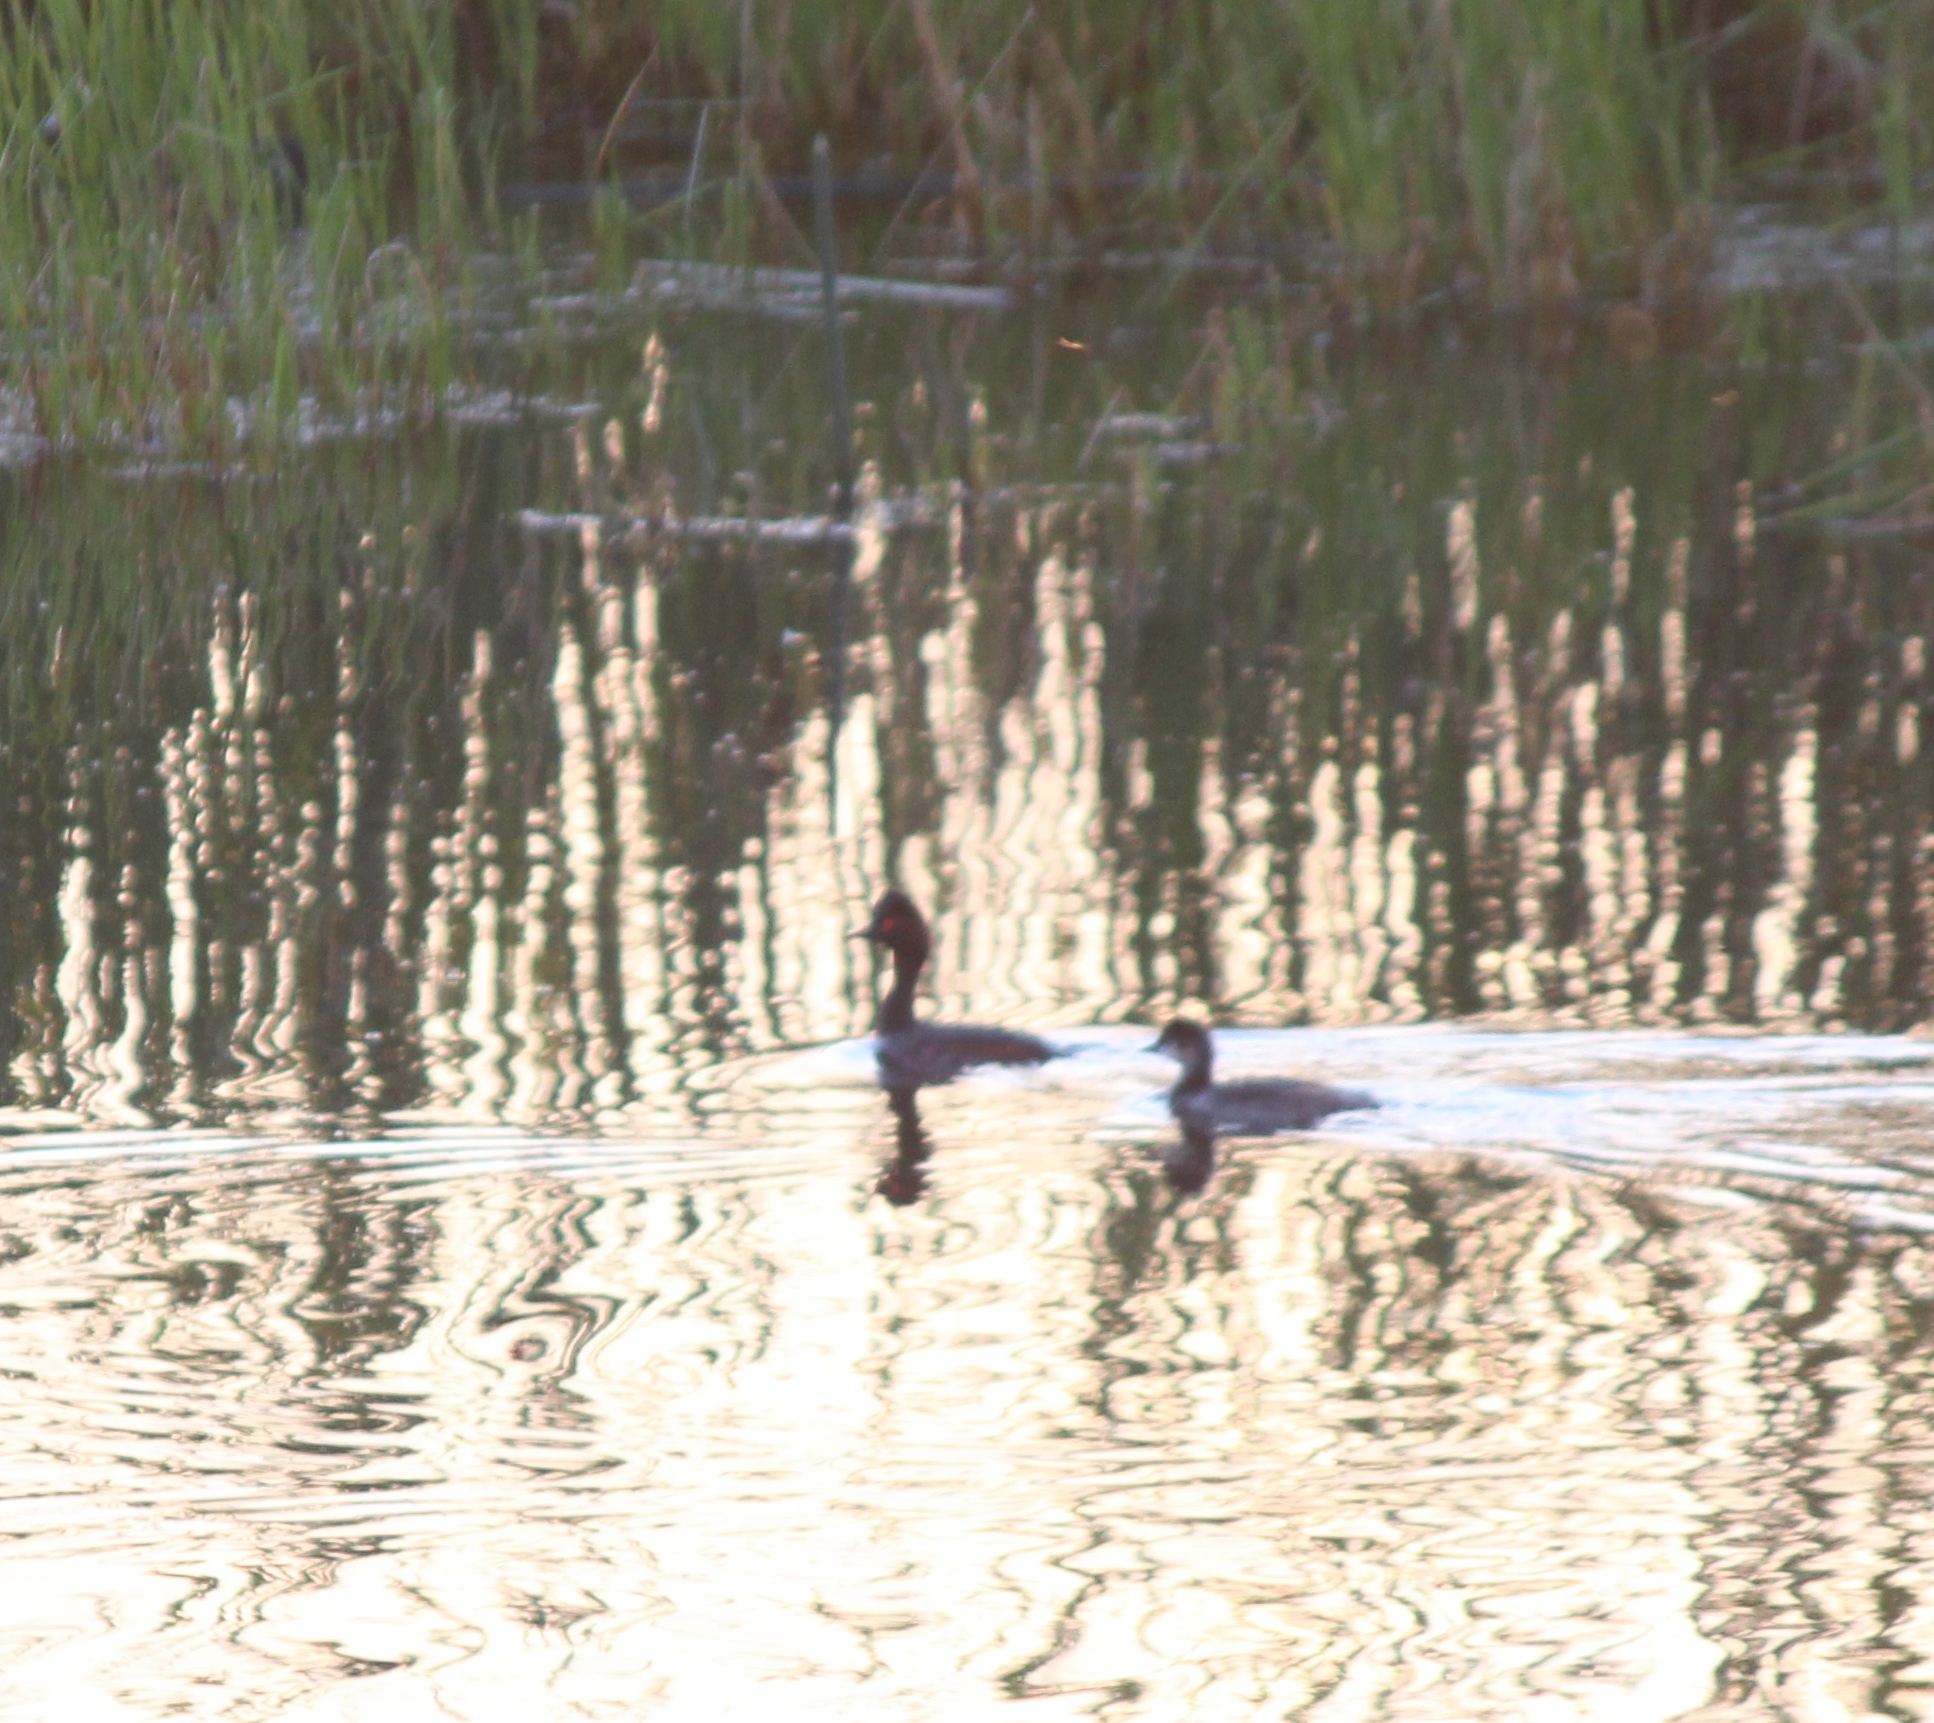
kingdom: Animalia
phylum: Chordata
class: Aves
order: Podicipediformes
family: Podicipedidae
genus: Podiceps
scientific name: Podiceps nigricollis
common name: Black-necked grebe
